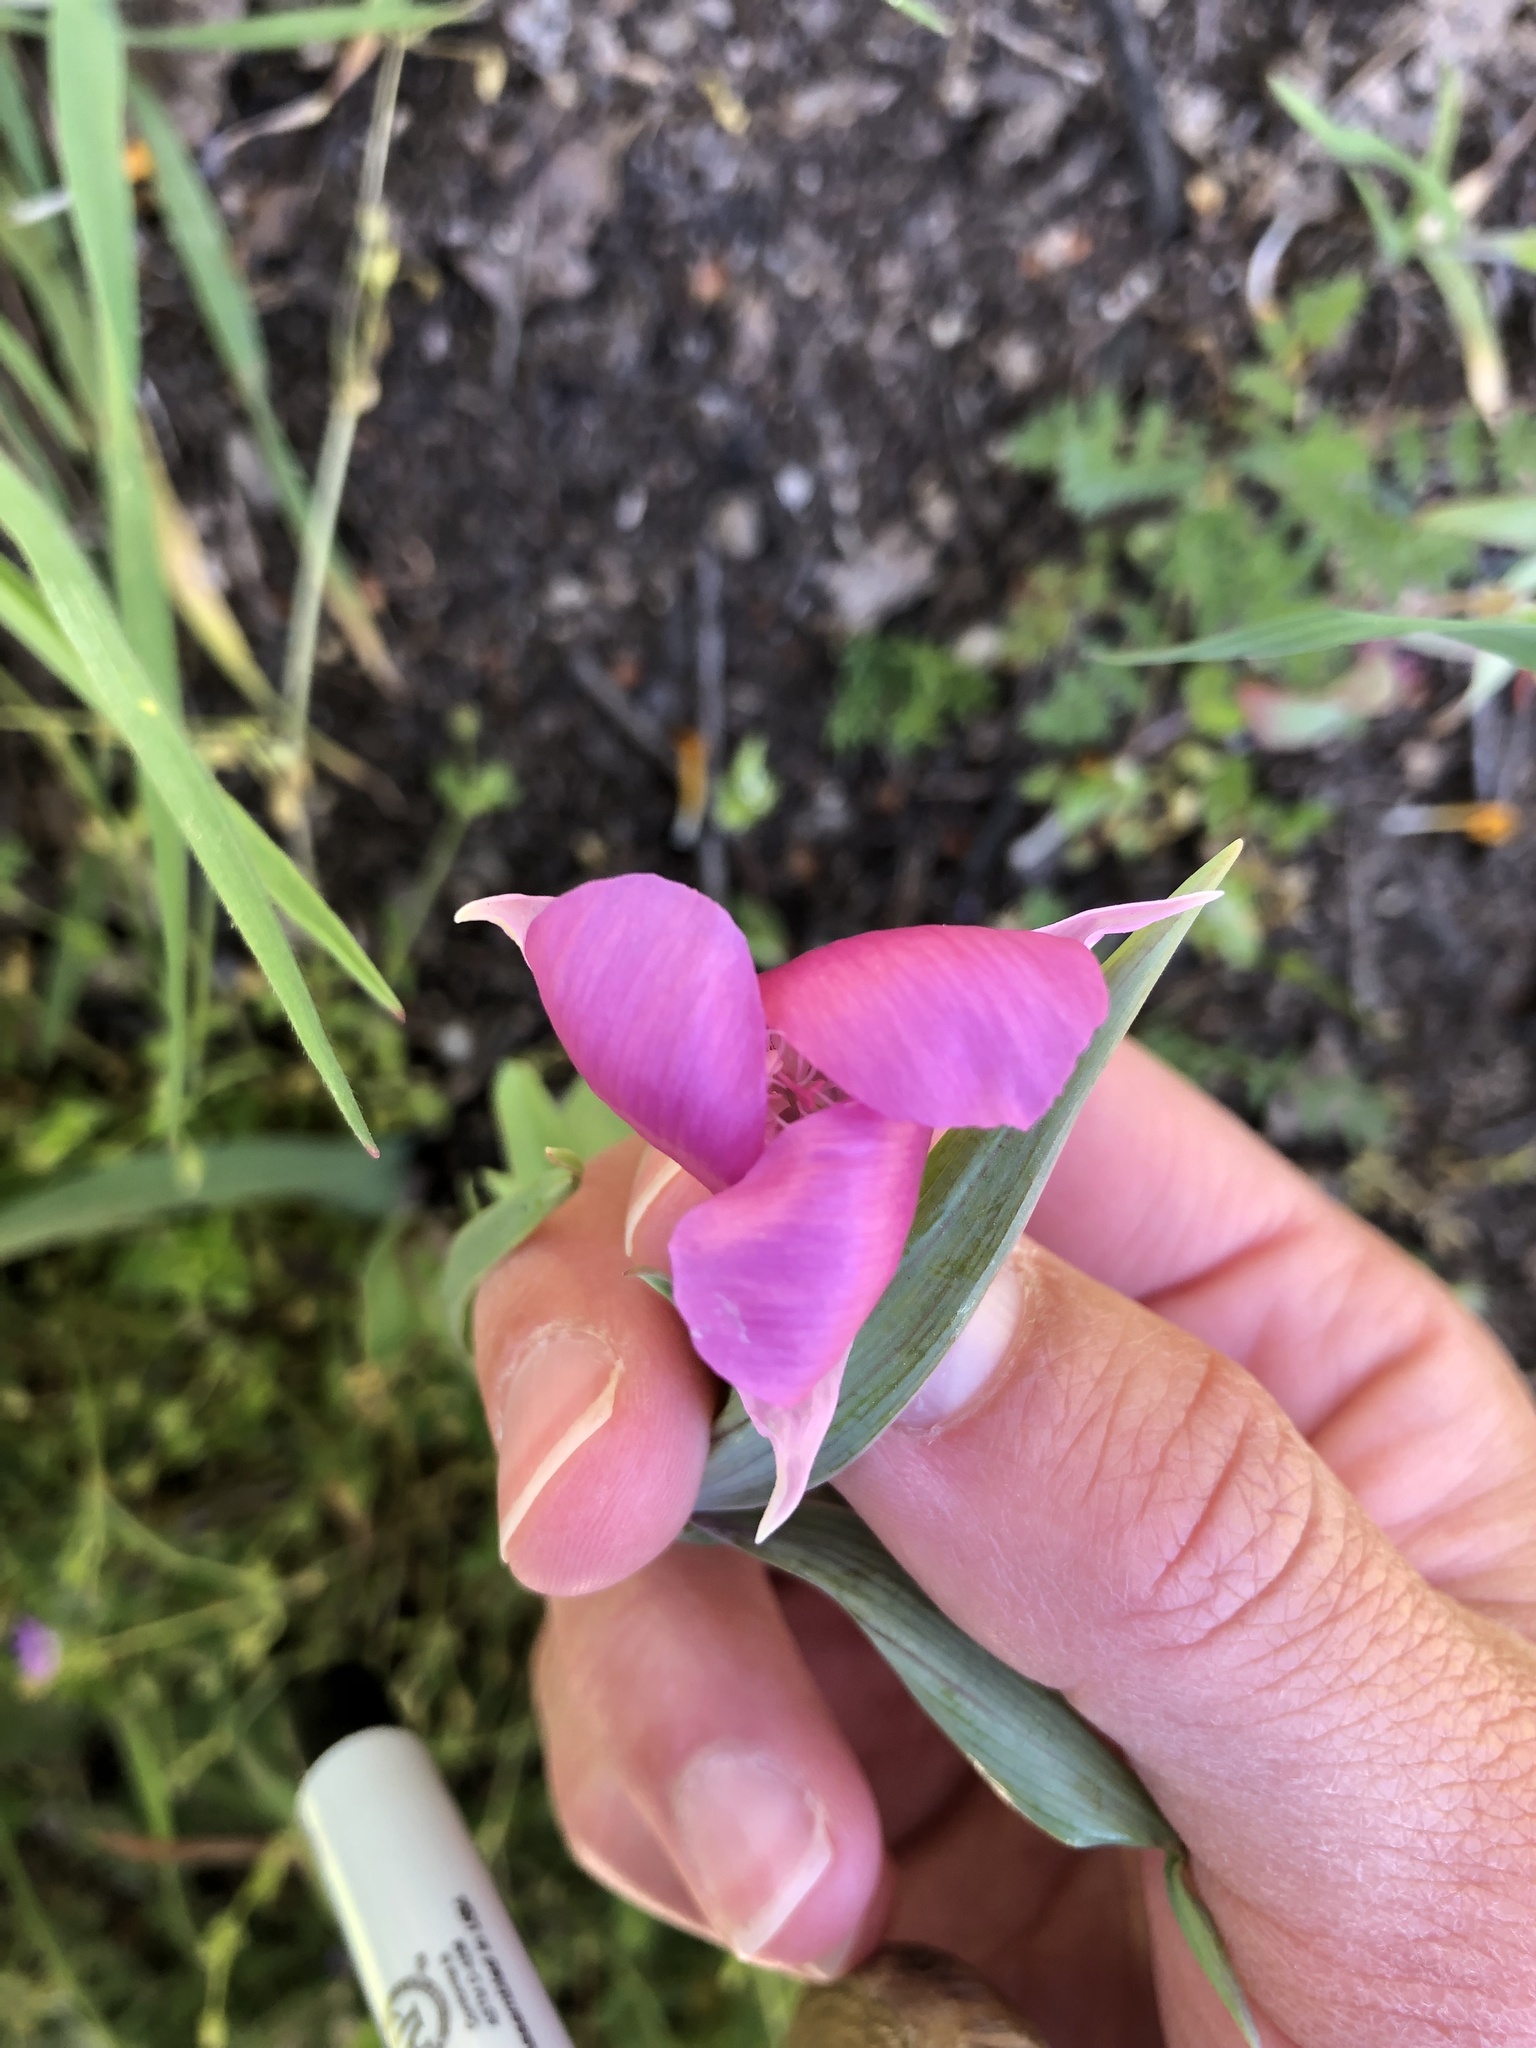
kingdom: Plantae
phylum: Tracheophyta
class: Liliopsida
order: Liliales
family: Liliaceae
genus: Calochortus
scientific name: Calochortus amoenus
